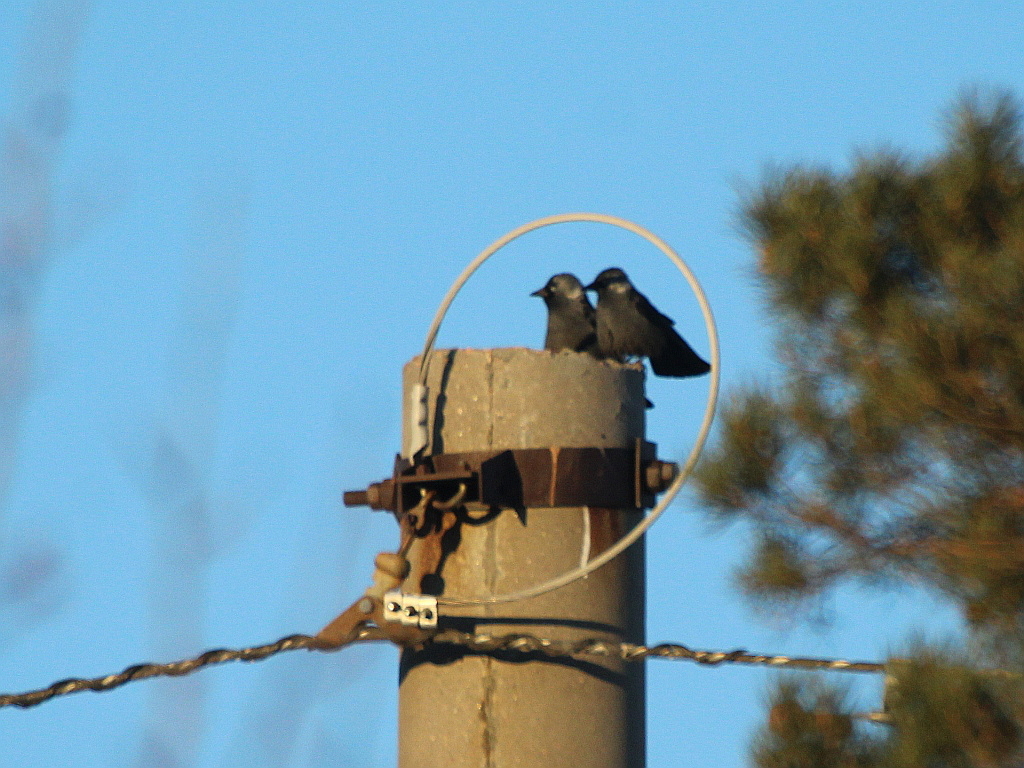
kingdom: Animalia
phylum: Chordata
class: Aves
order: Passeriformes
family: Corvidae
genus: Coloeus
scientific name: Coloeus monedula
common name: Western jackdaw
